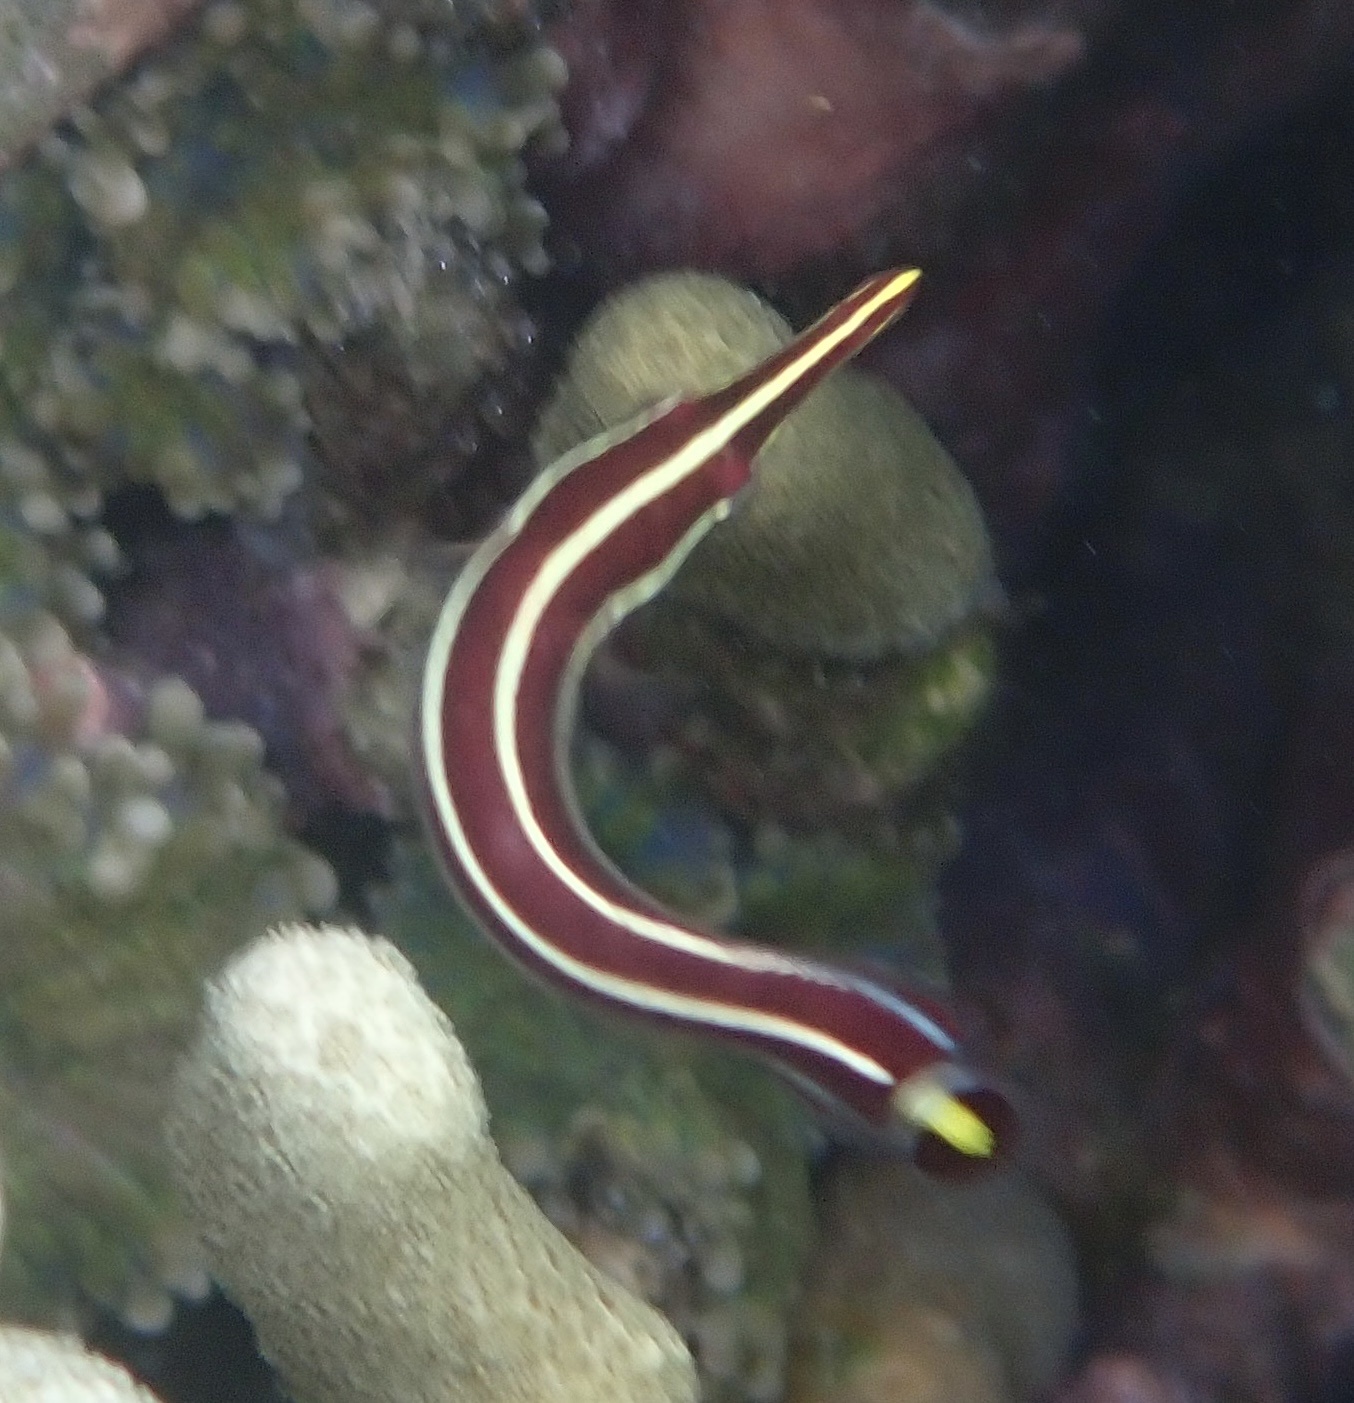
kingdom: Animalia
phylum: Chordata
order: Gobiesociformes
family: Gobiesocidae
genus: Diademichthys
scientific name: Diademichthys lineatus
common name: Urchin clingfish
